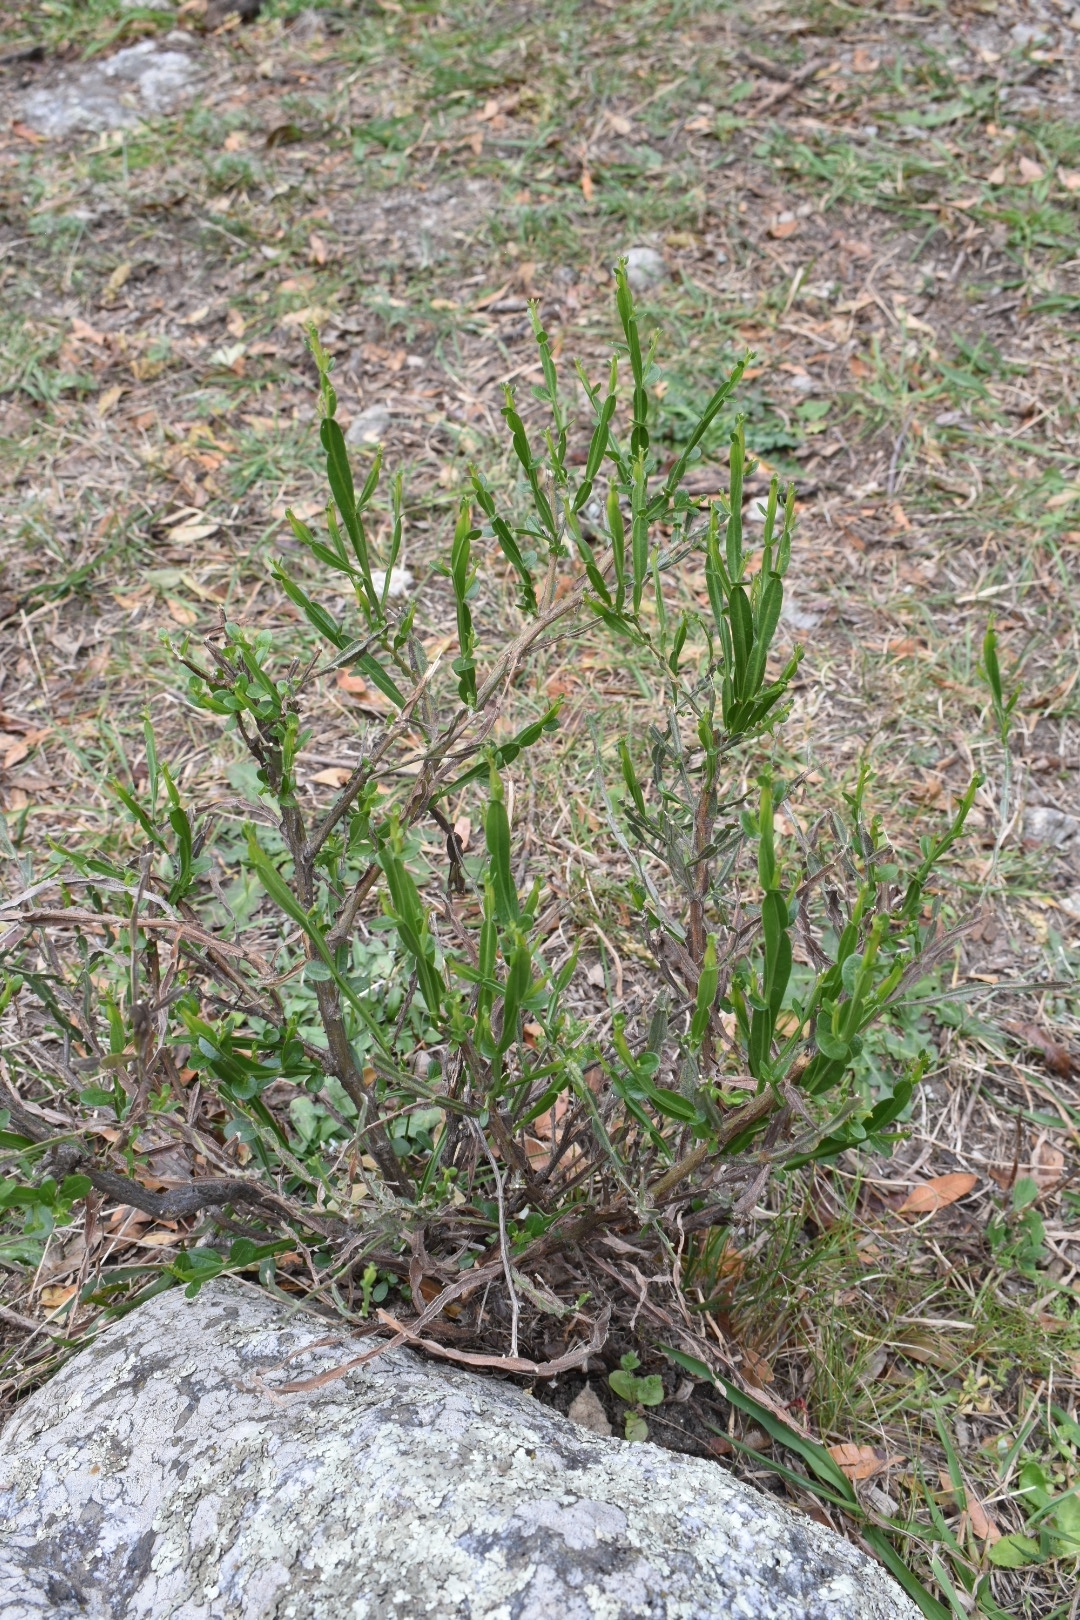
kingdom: Plantae
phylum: Tracheophyta
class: Magnoliopsida
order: Asterales
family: Asteraceae
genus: Baccharis
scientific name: Baccharis articulata
